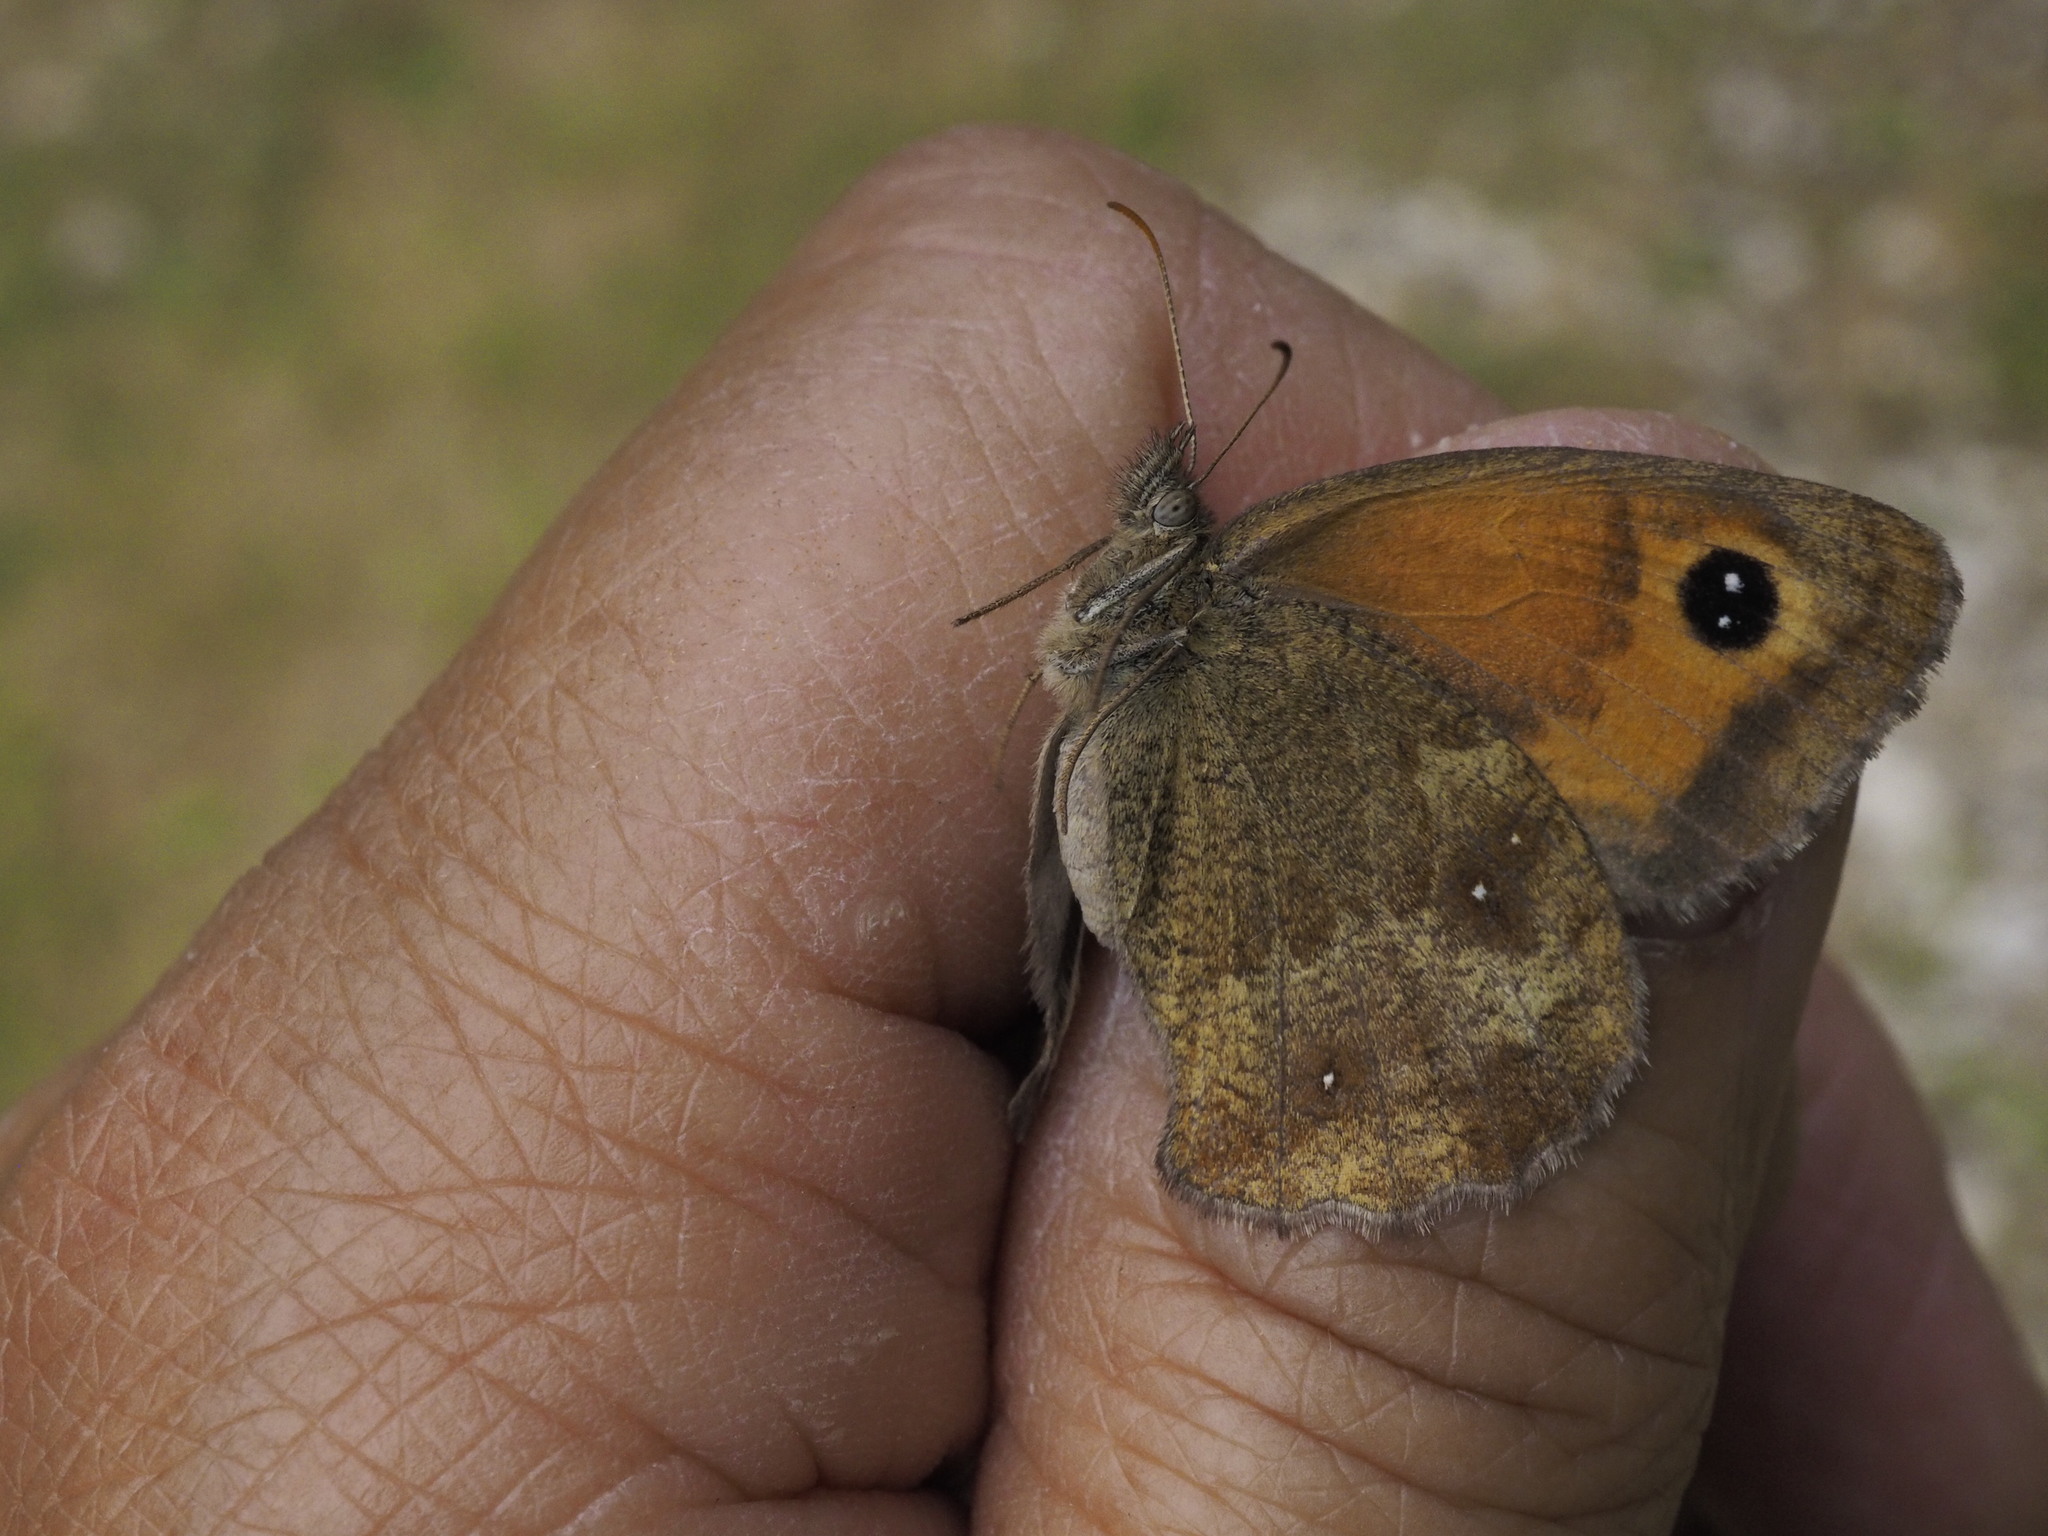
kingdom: Animalia
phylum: Arthropoda
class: Insecta
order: Lepidoptera
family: Nymphalidae
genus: Pyronia
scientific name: Pyronia tithonus
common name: Gatekeeper
